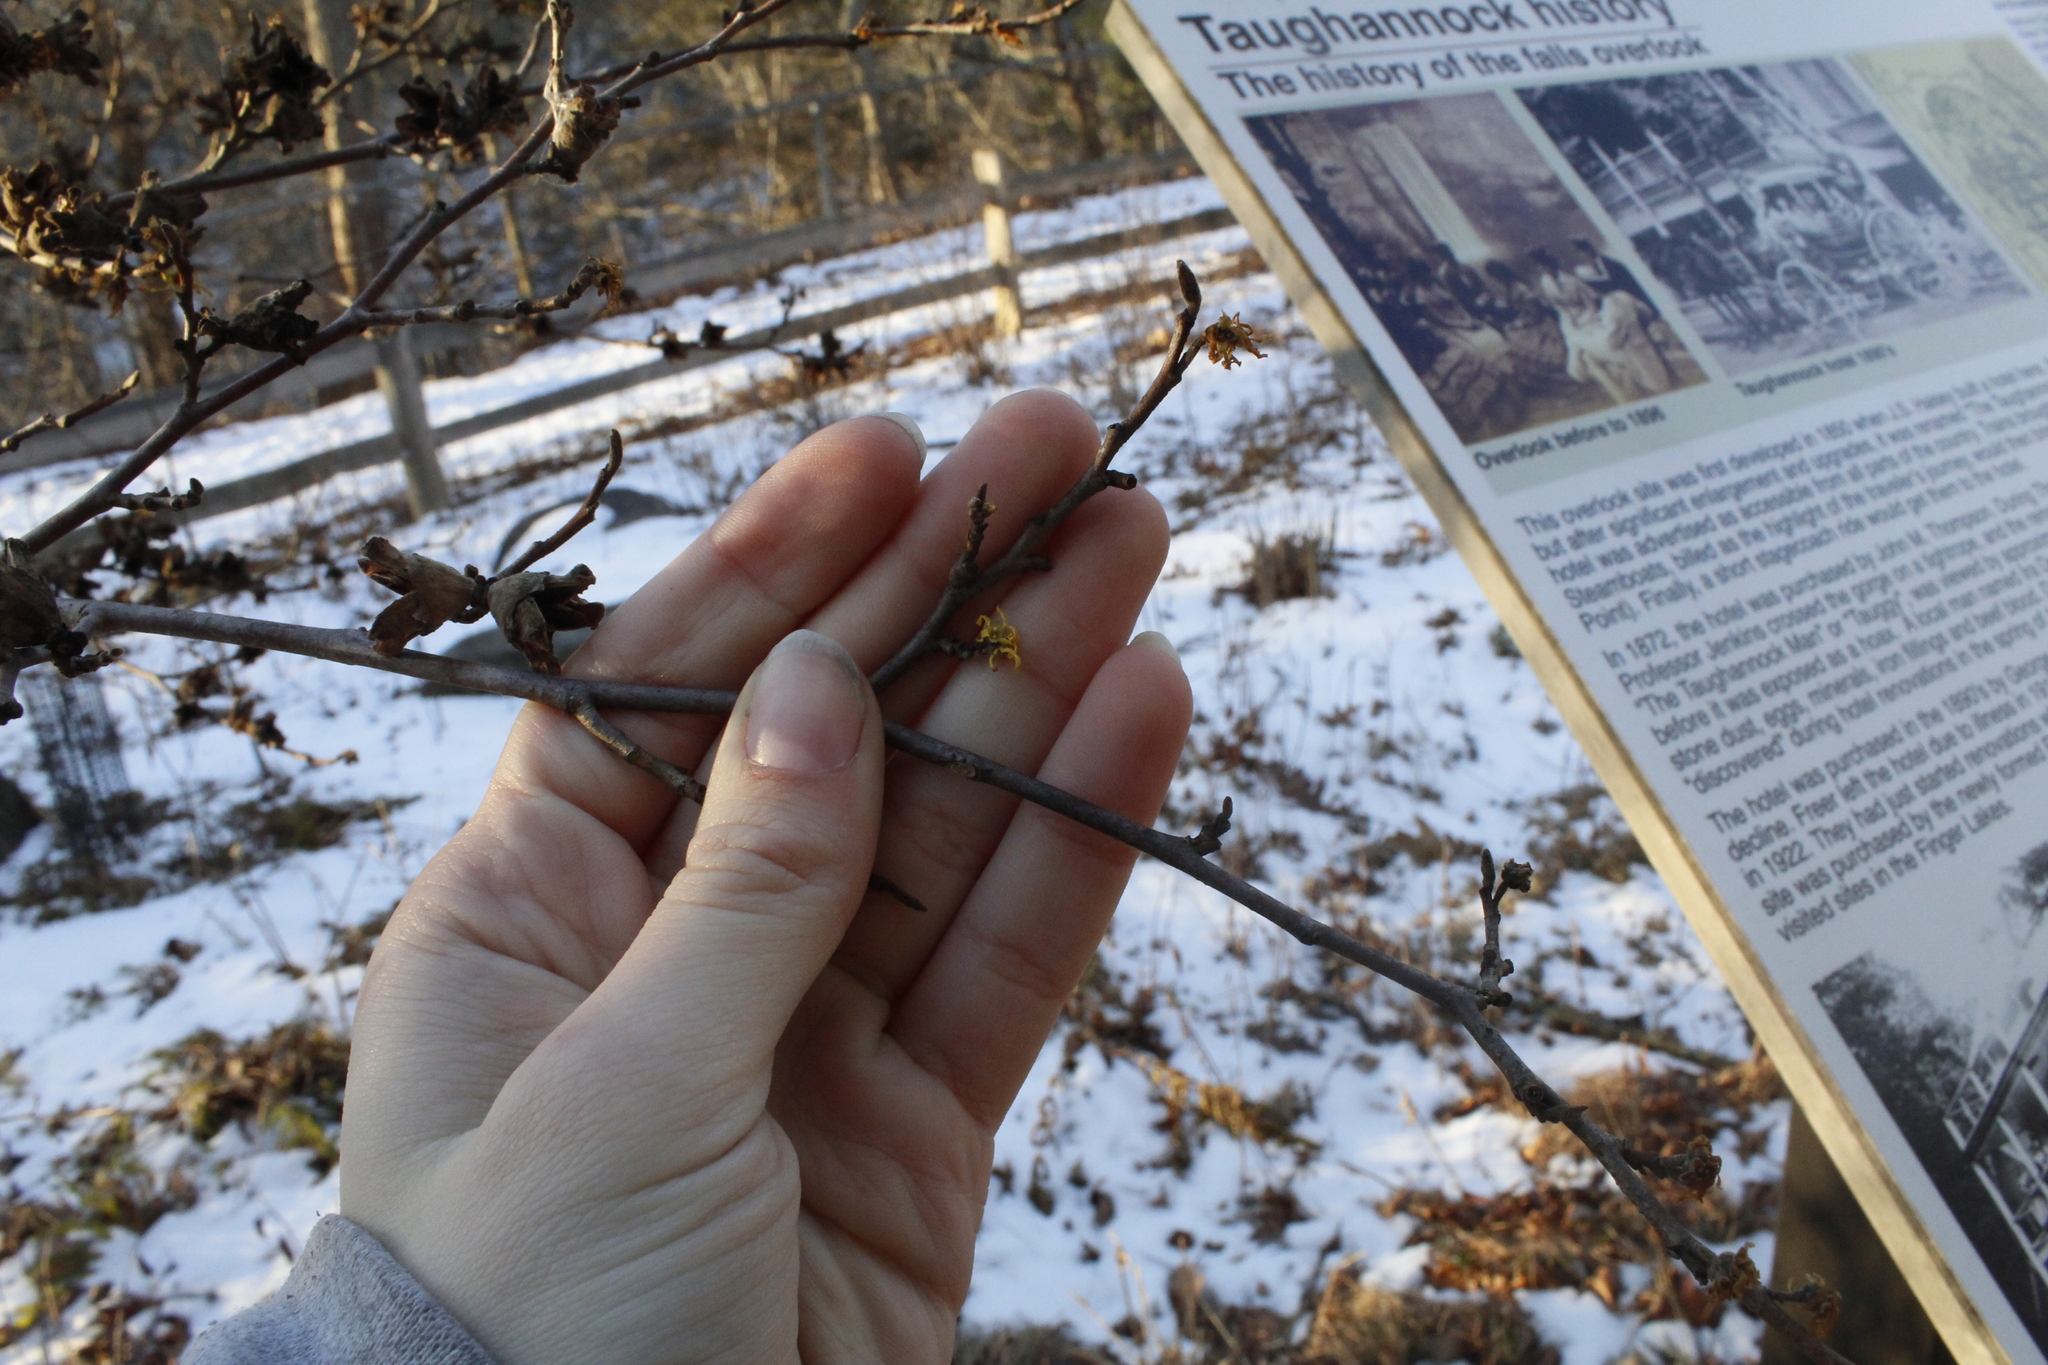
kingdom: Plantae
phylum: Tracheophyta
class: Magnoliopsida
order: Saxifragales
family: Hamamelidaceae
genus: Hamamelis
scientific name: Hamamelis virginiana
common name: Witch-hazel
